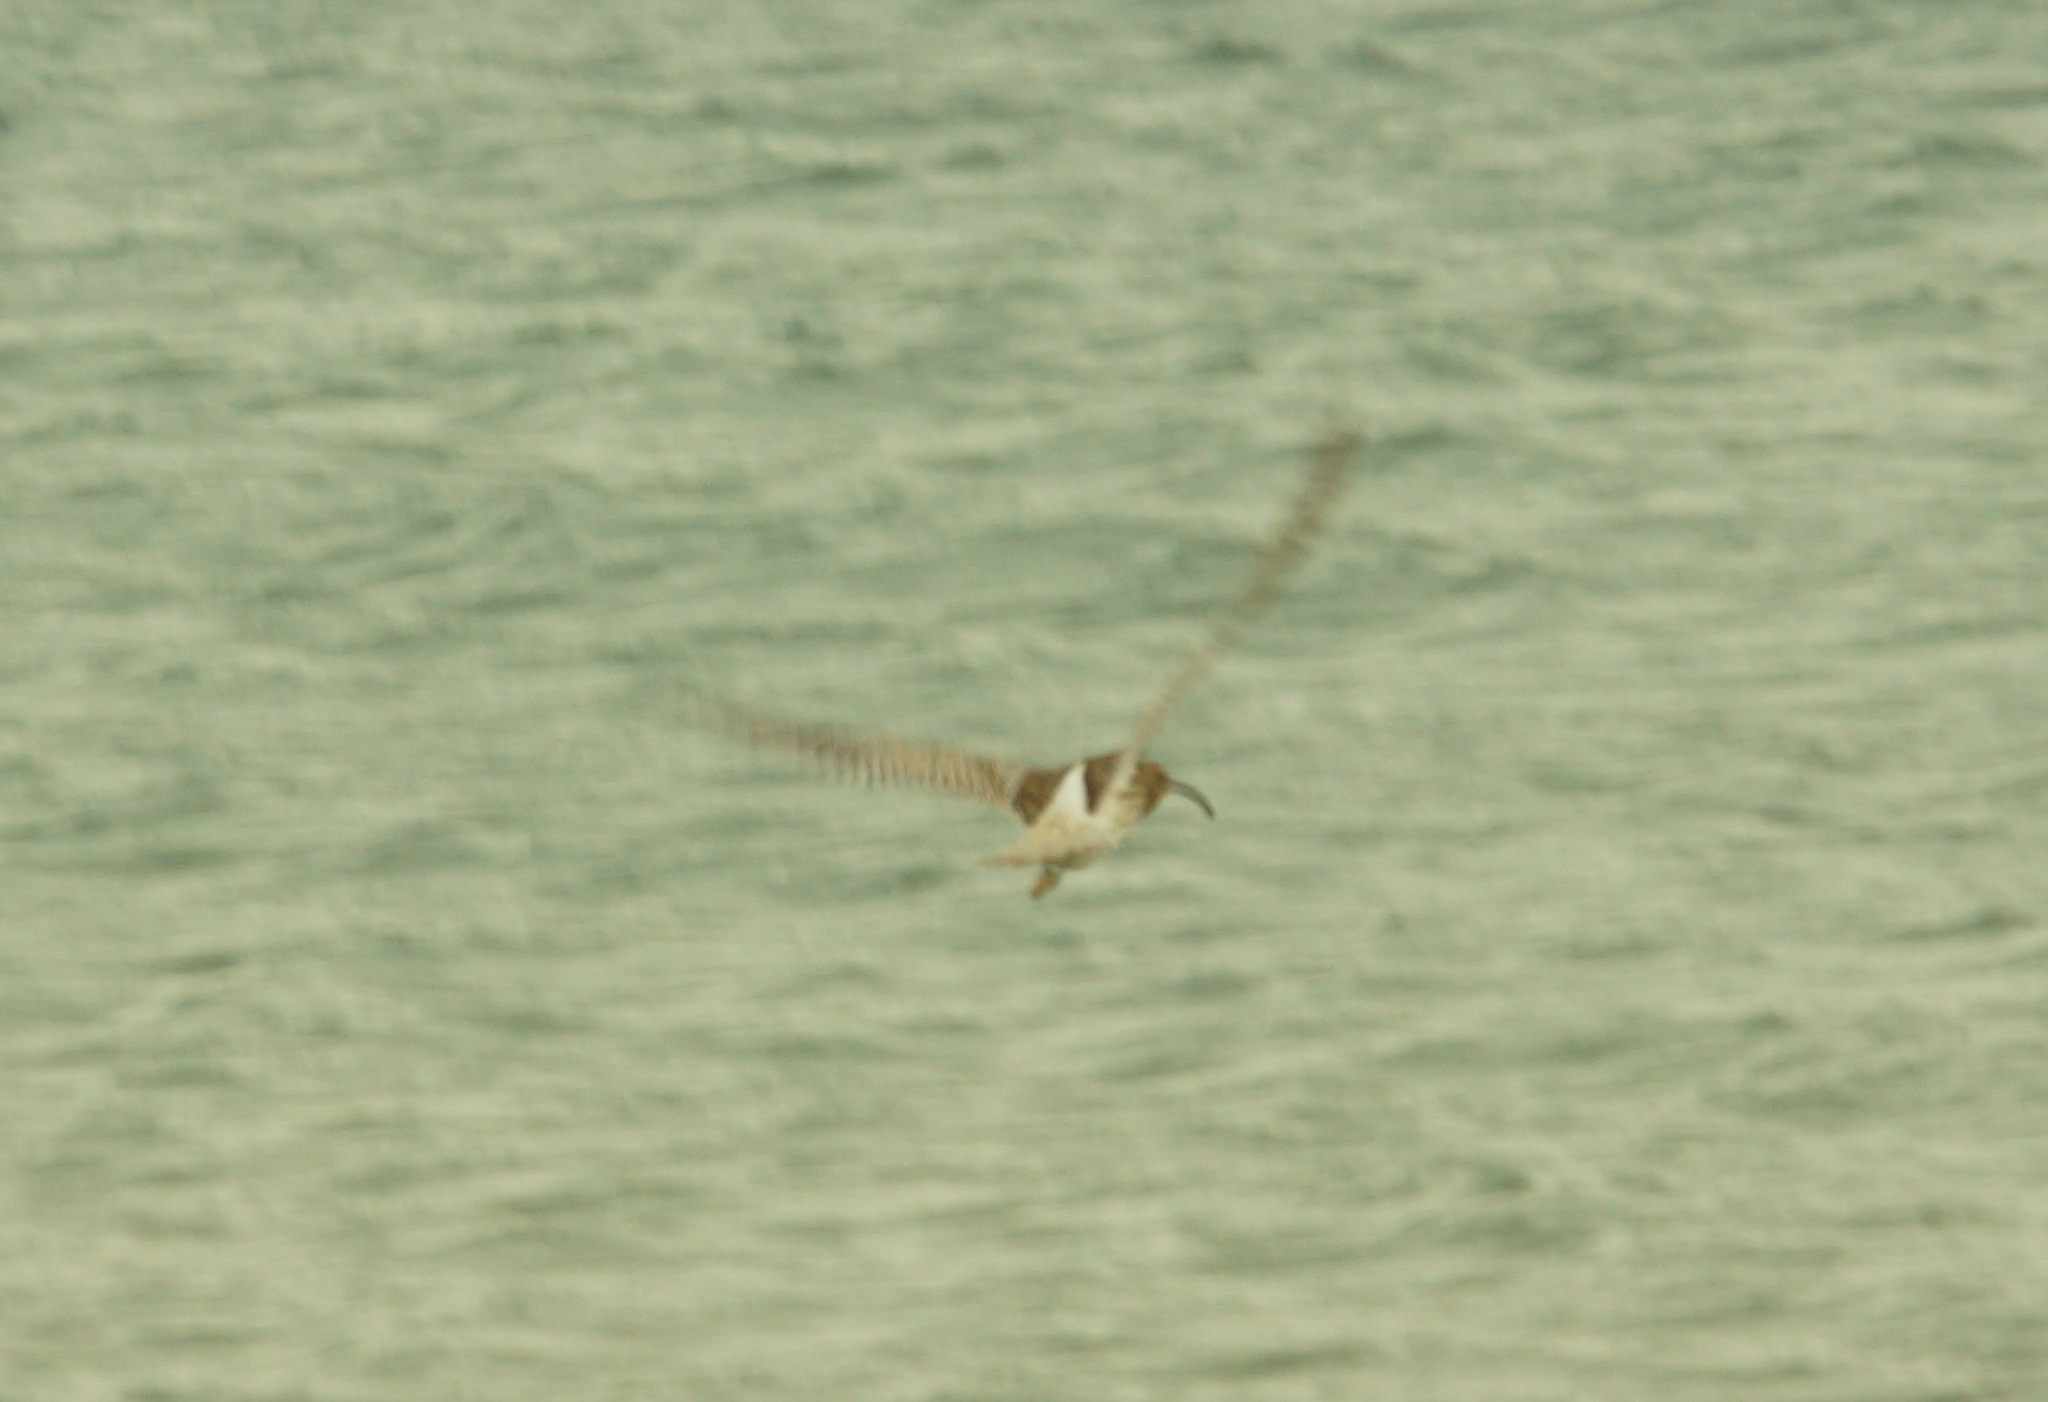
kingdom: Animalia
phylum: Chordata
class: Aves
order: Charadriiformes
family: Scolopacidae
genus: Numenius
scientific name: Numenius arquata
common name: Eurasian curlew
